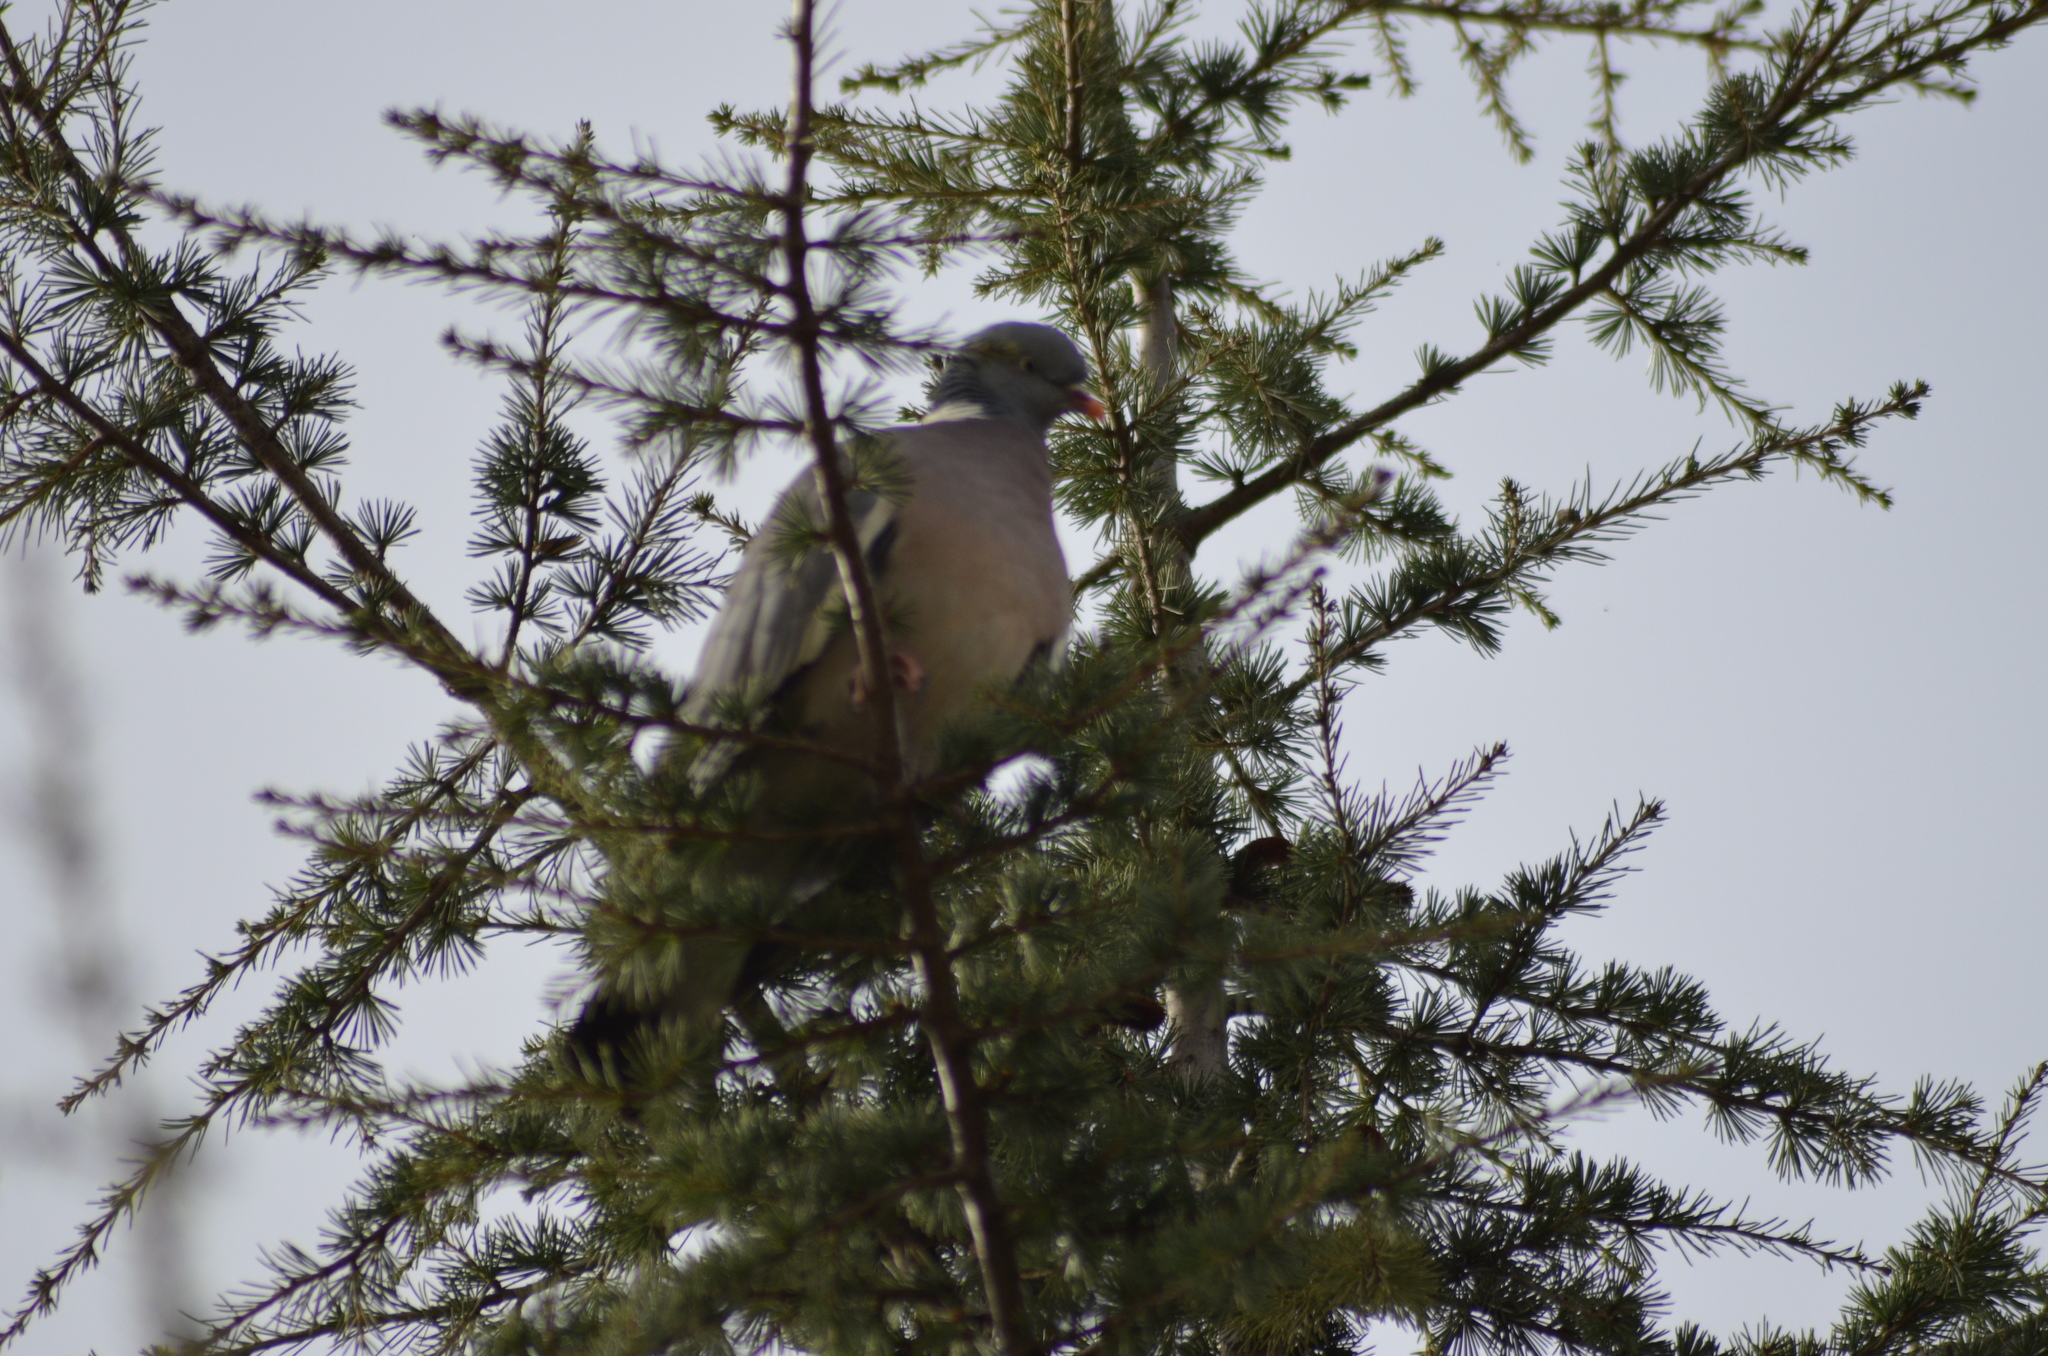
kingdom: Animalia
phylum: Chordata
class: Aves
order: Columbiformes
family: Columbidae
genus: Columba
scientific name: Columba palumbus
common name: Common wood pigeon
